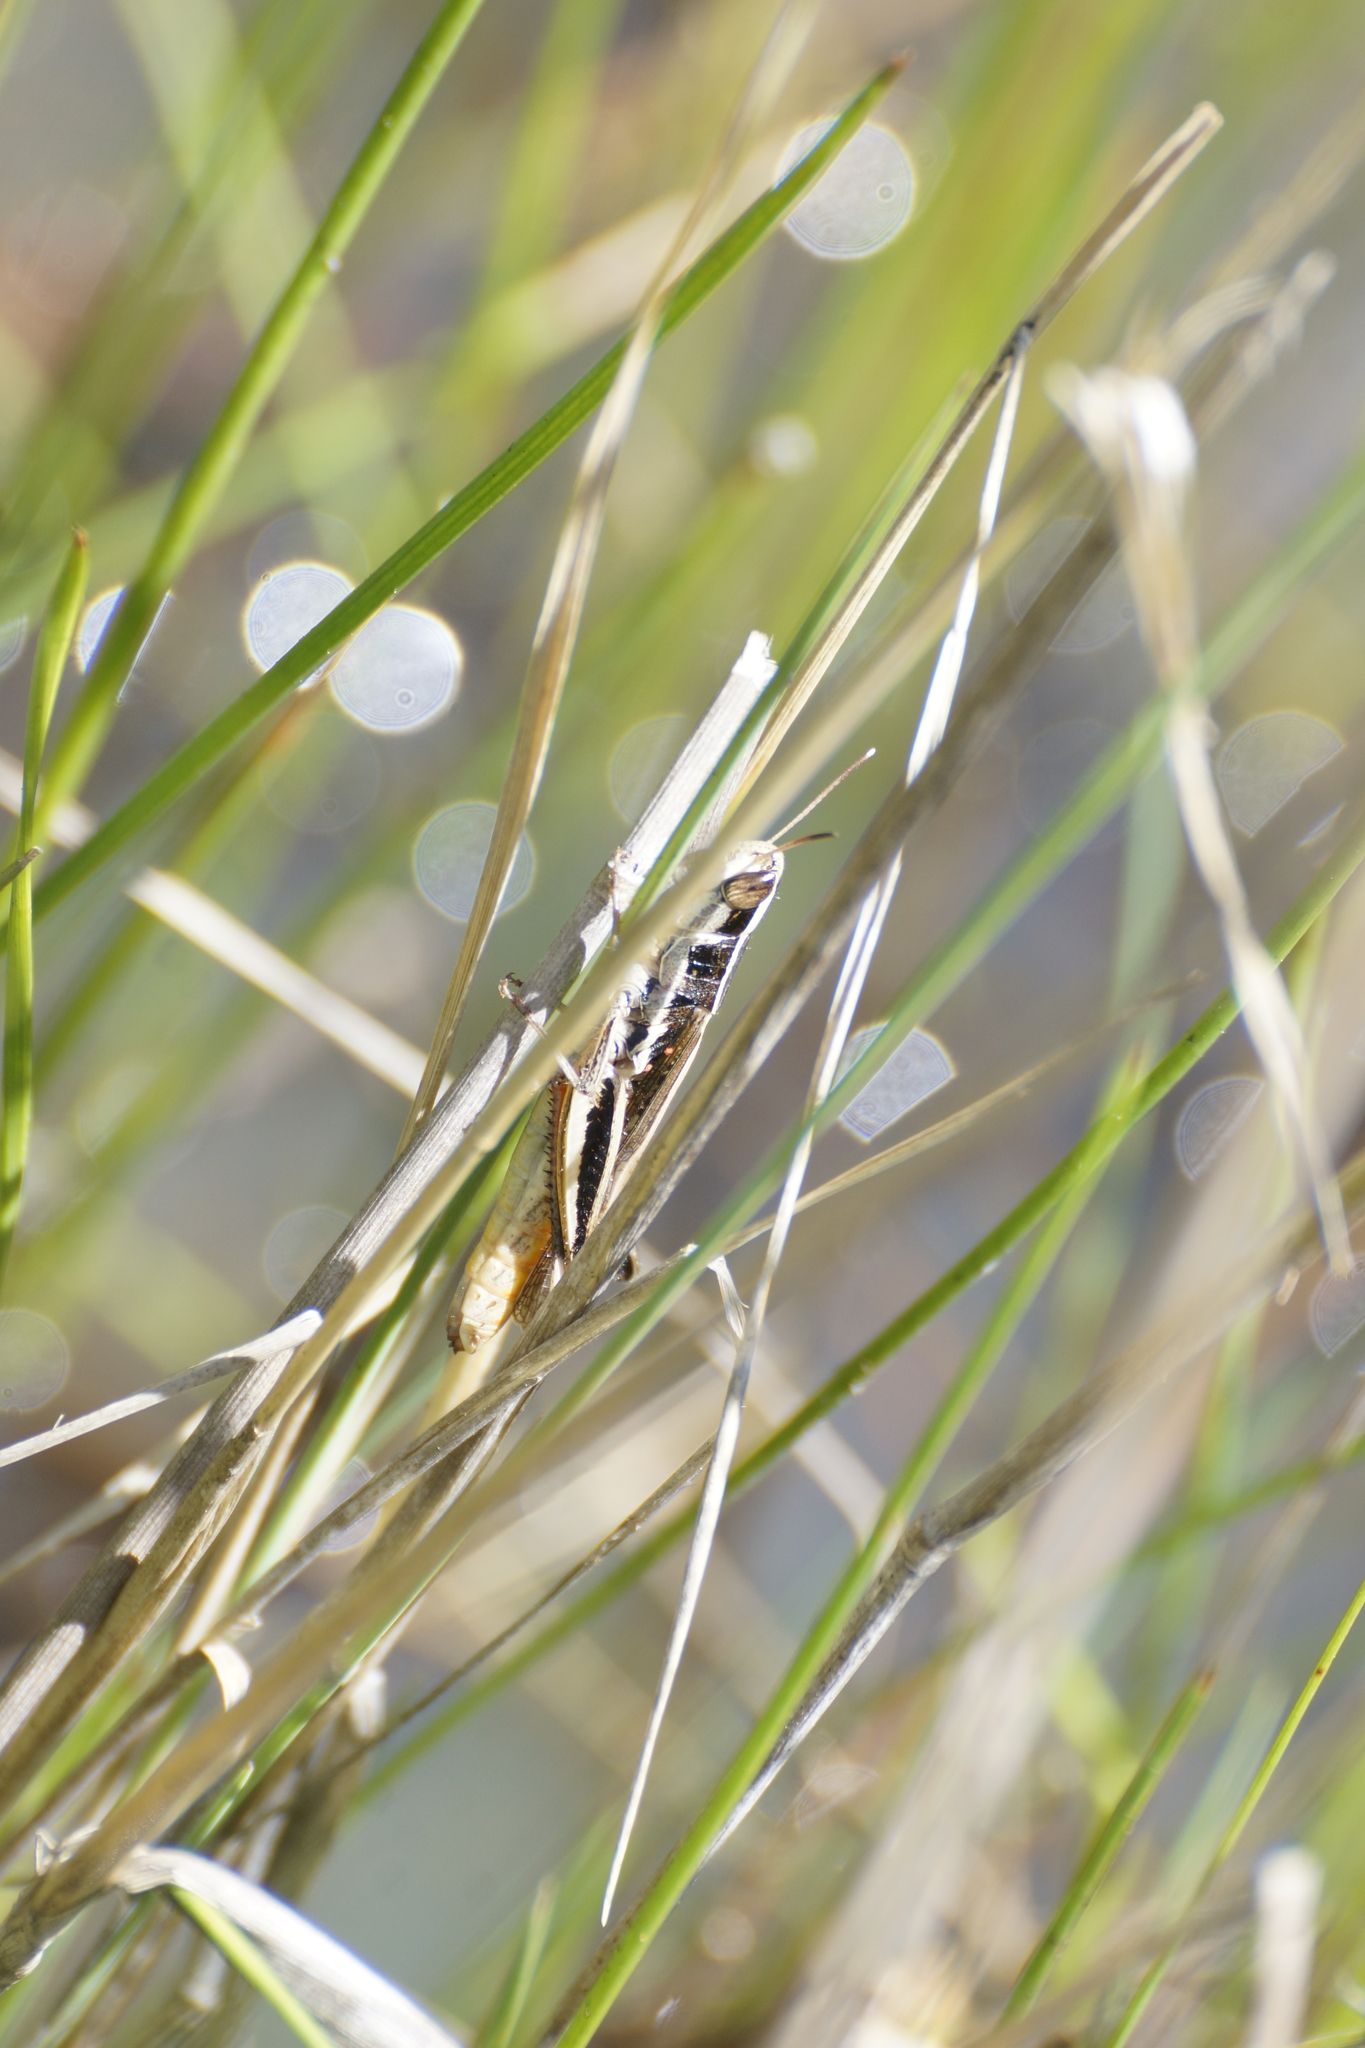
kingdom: Animalia
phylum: Arthropoda
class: Insecta
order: Orthoptera
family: Acrididae
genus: Macrotona
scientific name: Macrotona securiformis
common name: Inland macrotona
